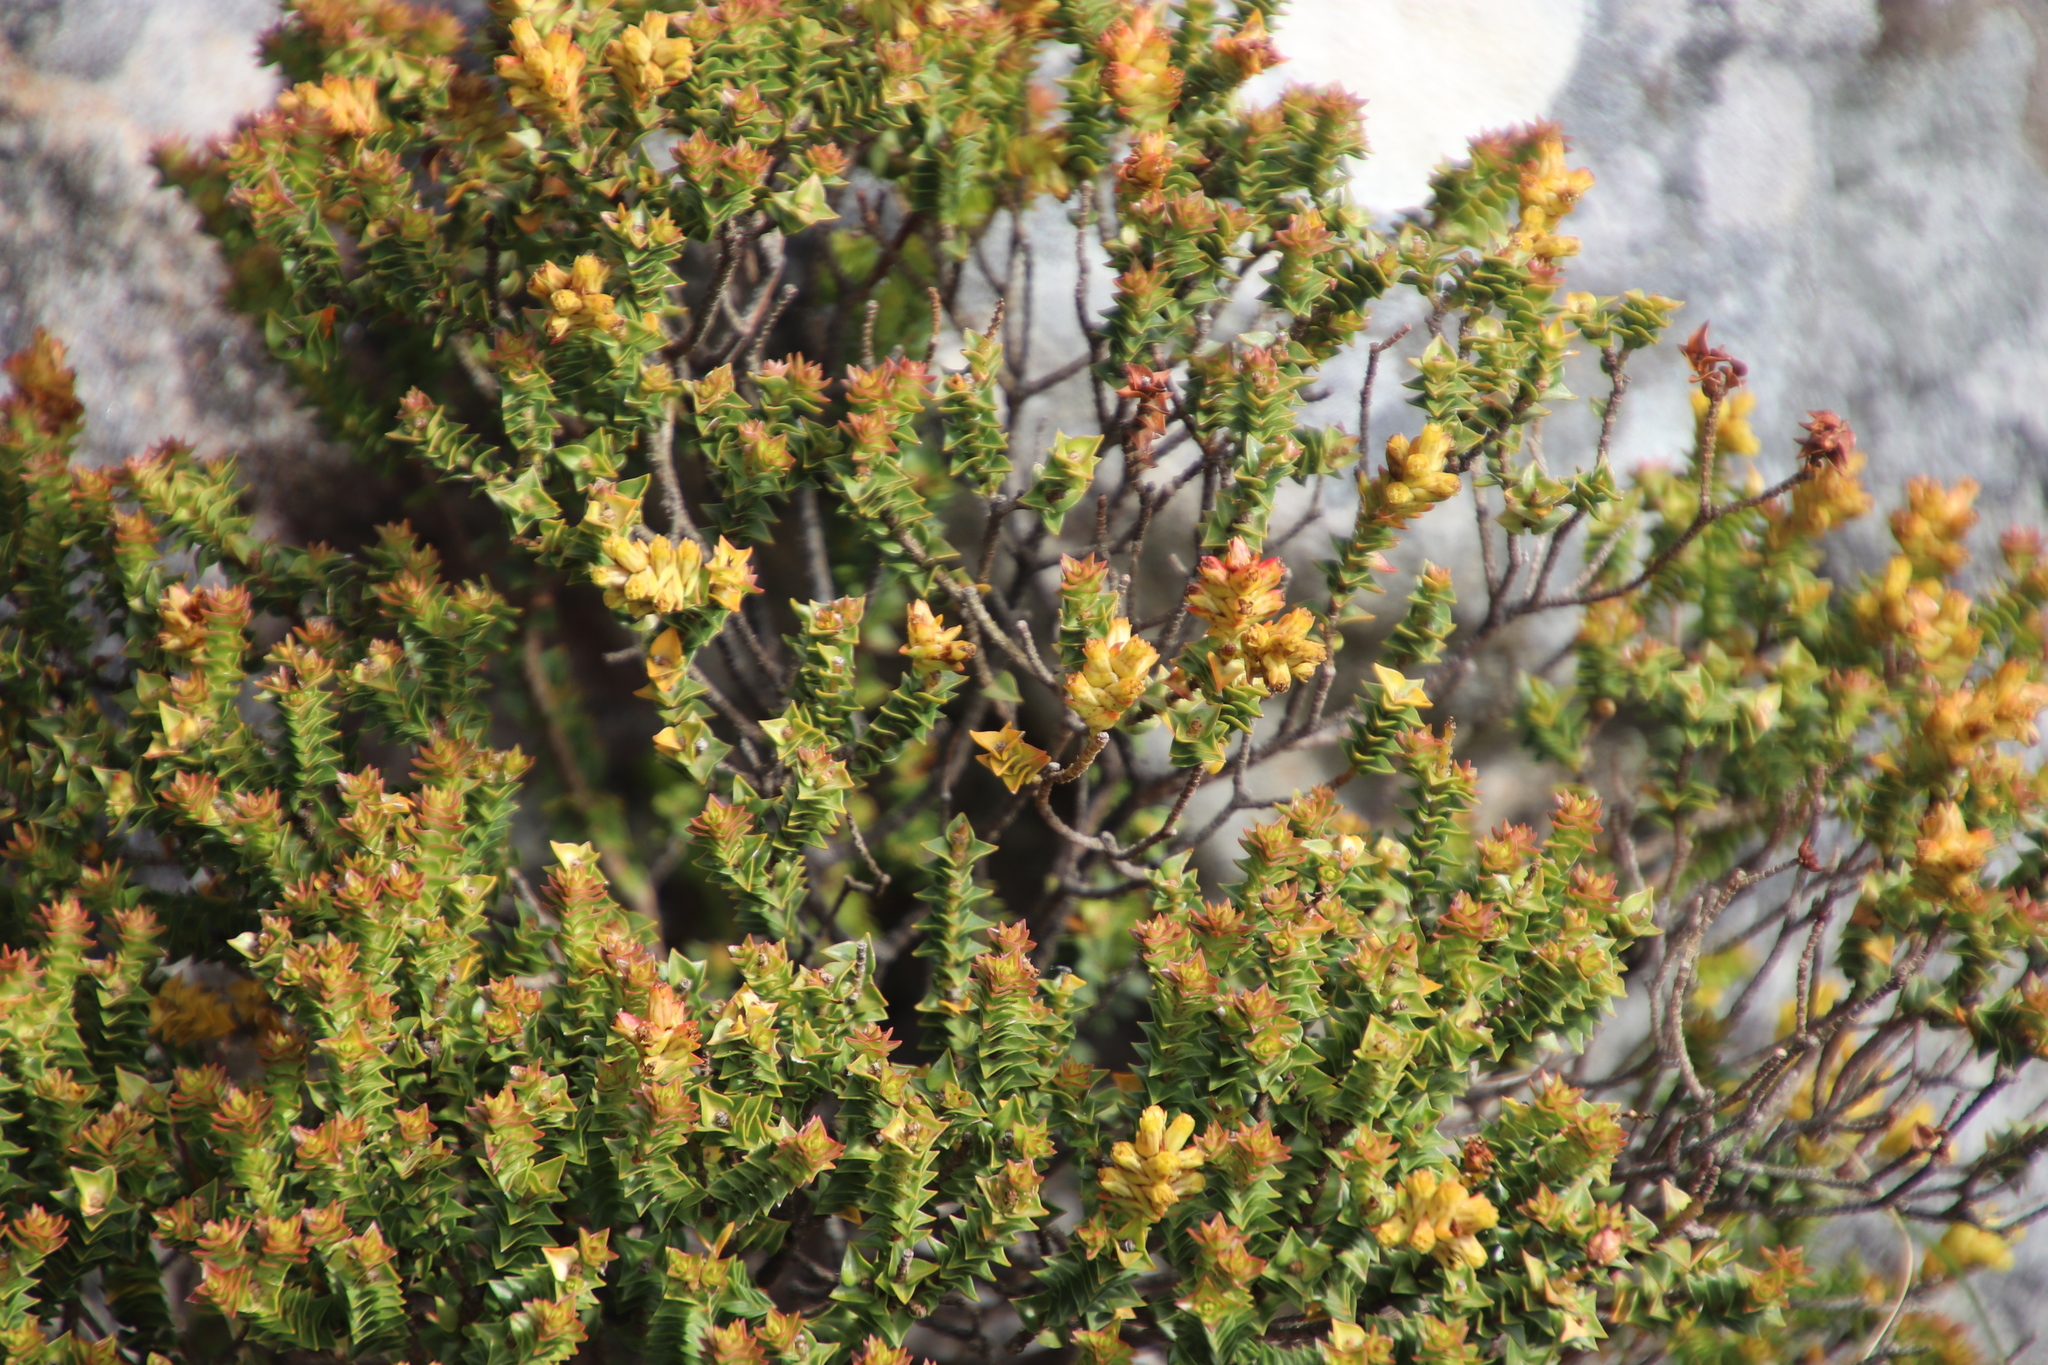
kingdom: Plantae
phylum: Tracheophyta
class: Magnoliopsida
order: Myrtales
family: Penaeaceae
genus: Penaea
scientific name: Penaea mucronata
